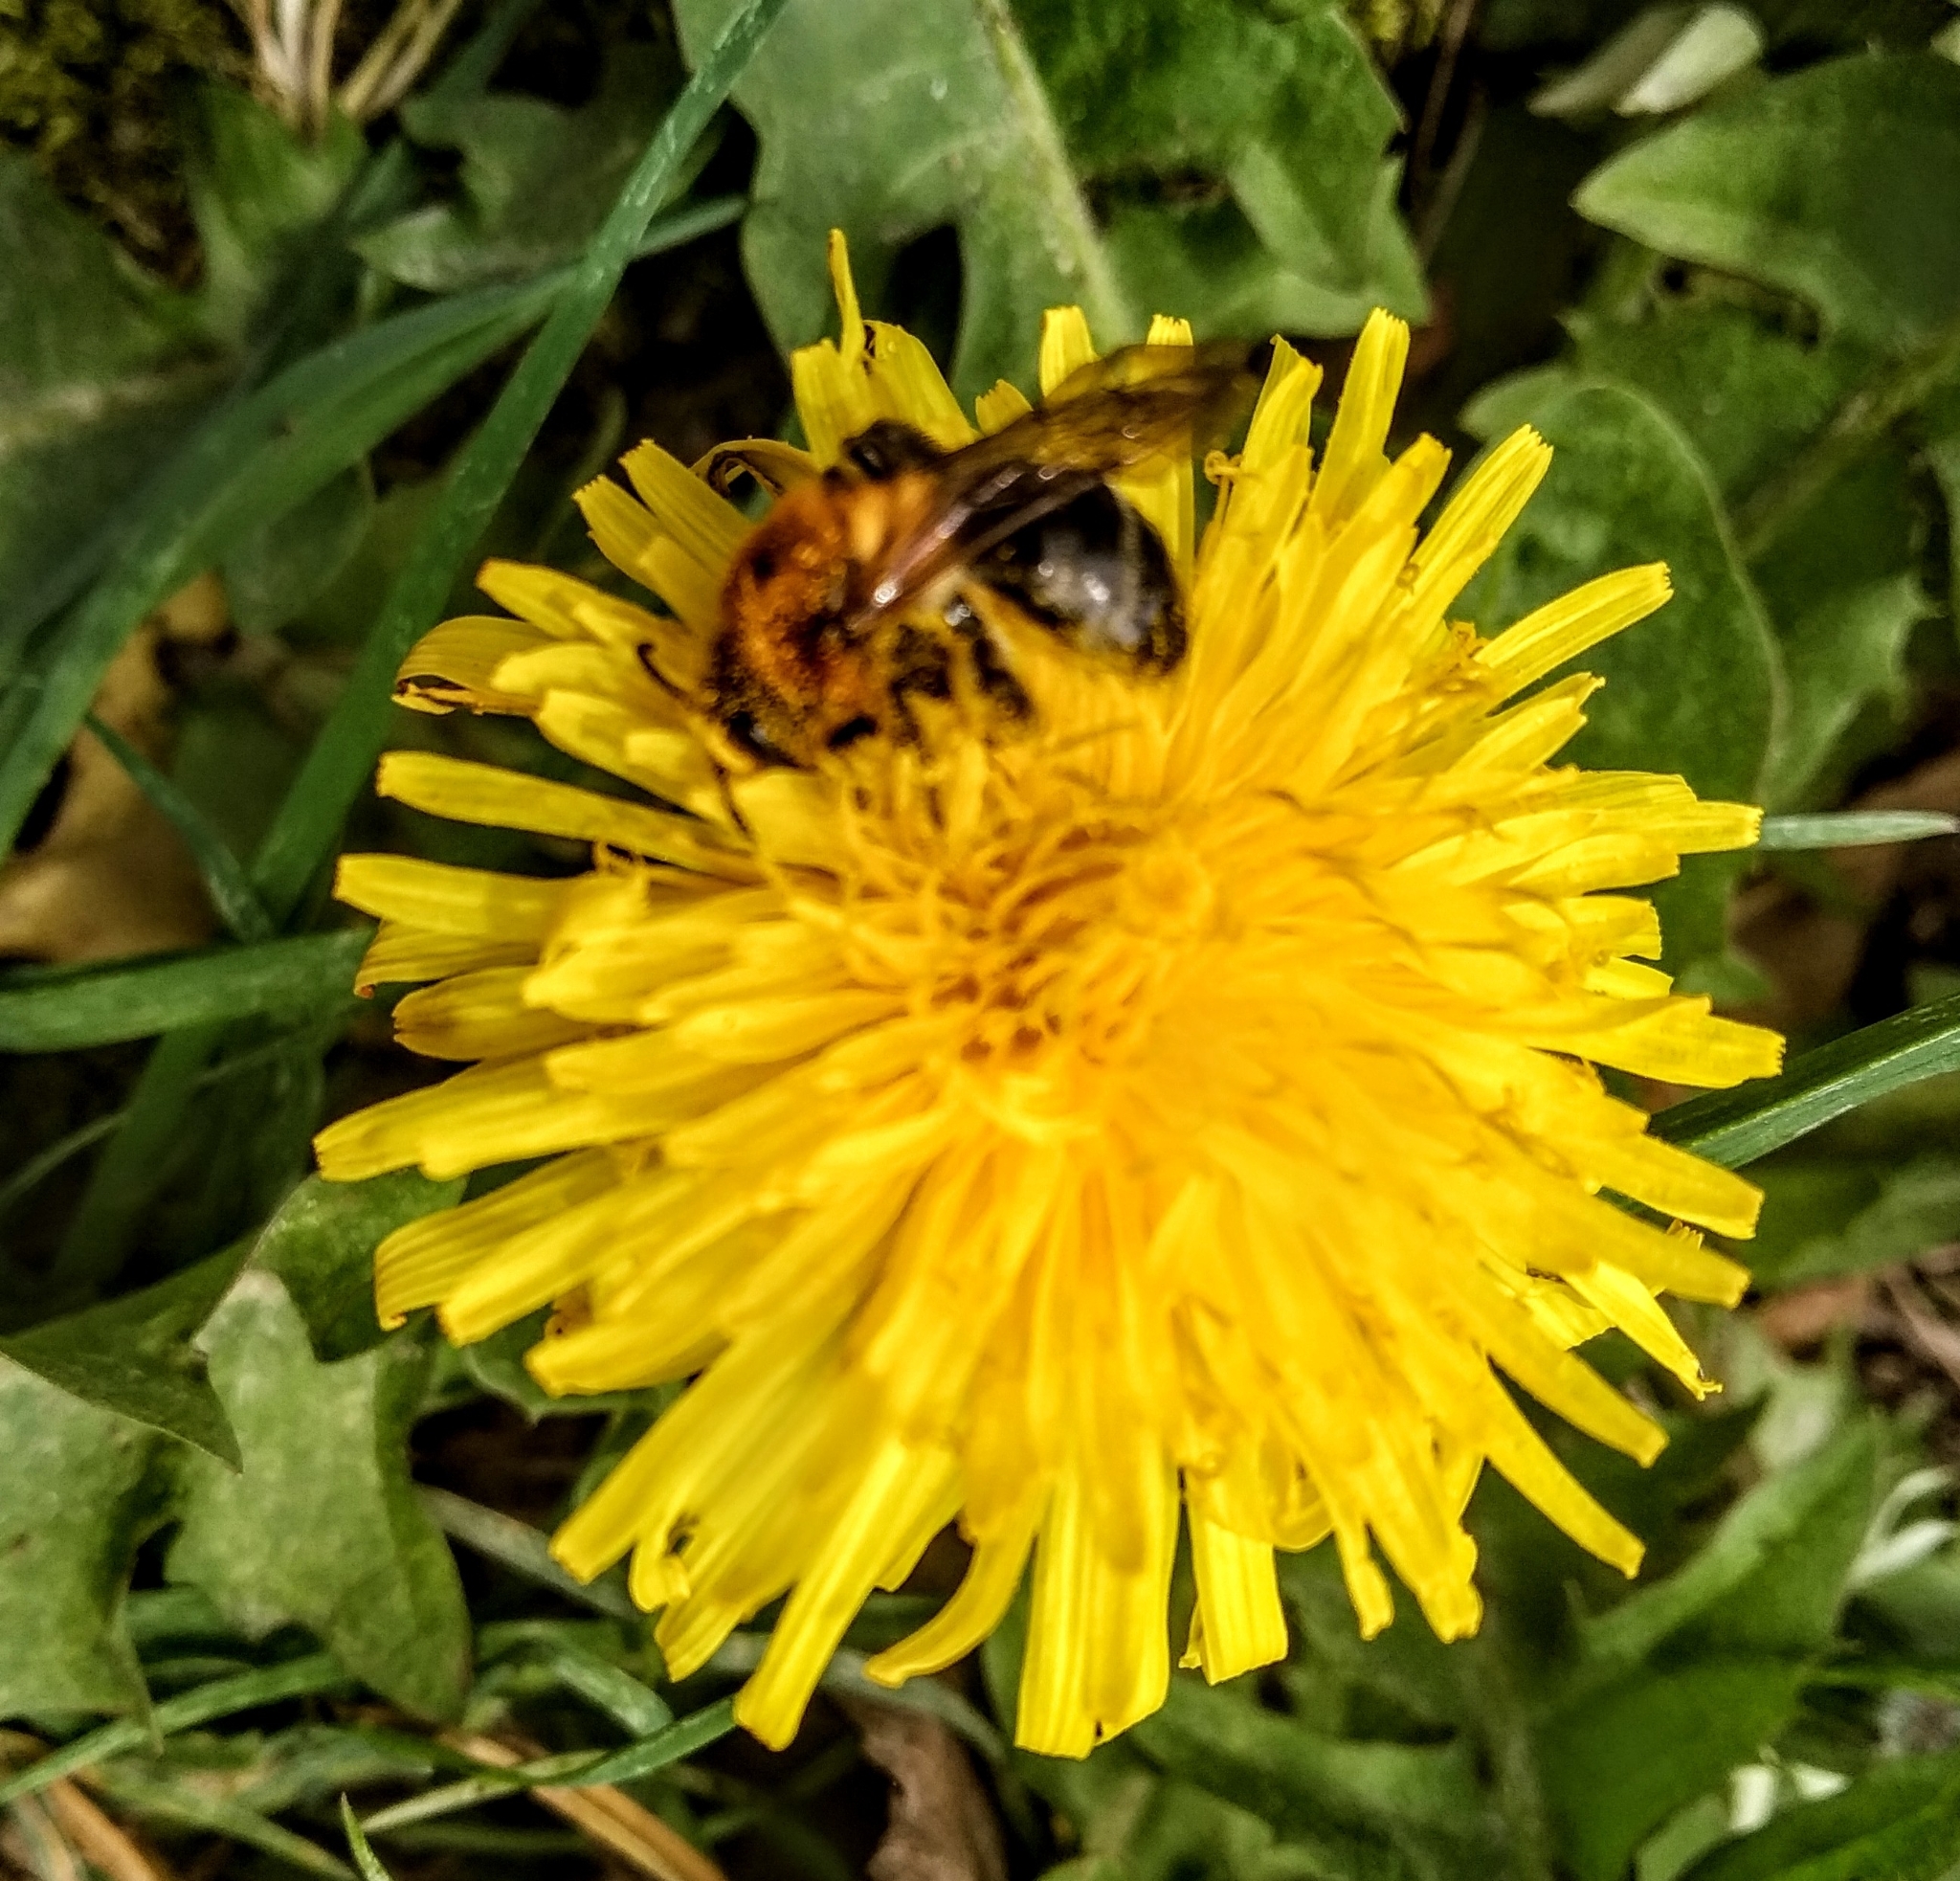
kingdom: Animalia
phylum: Arthropoda
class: Insecta
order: Hymenoptera
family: Andrenidae
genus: Andrena
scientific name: Andrena nitida
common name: Grey-patched mining bee
